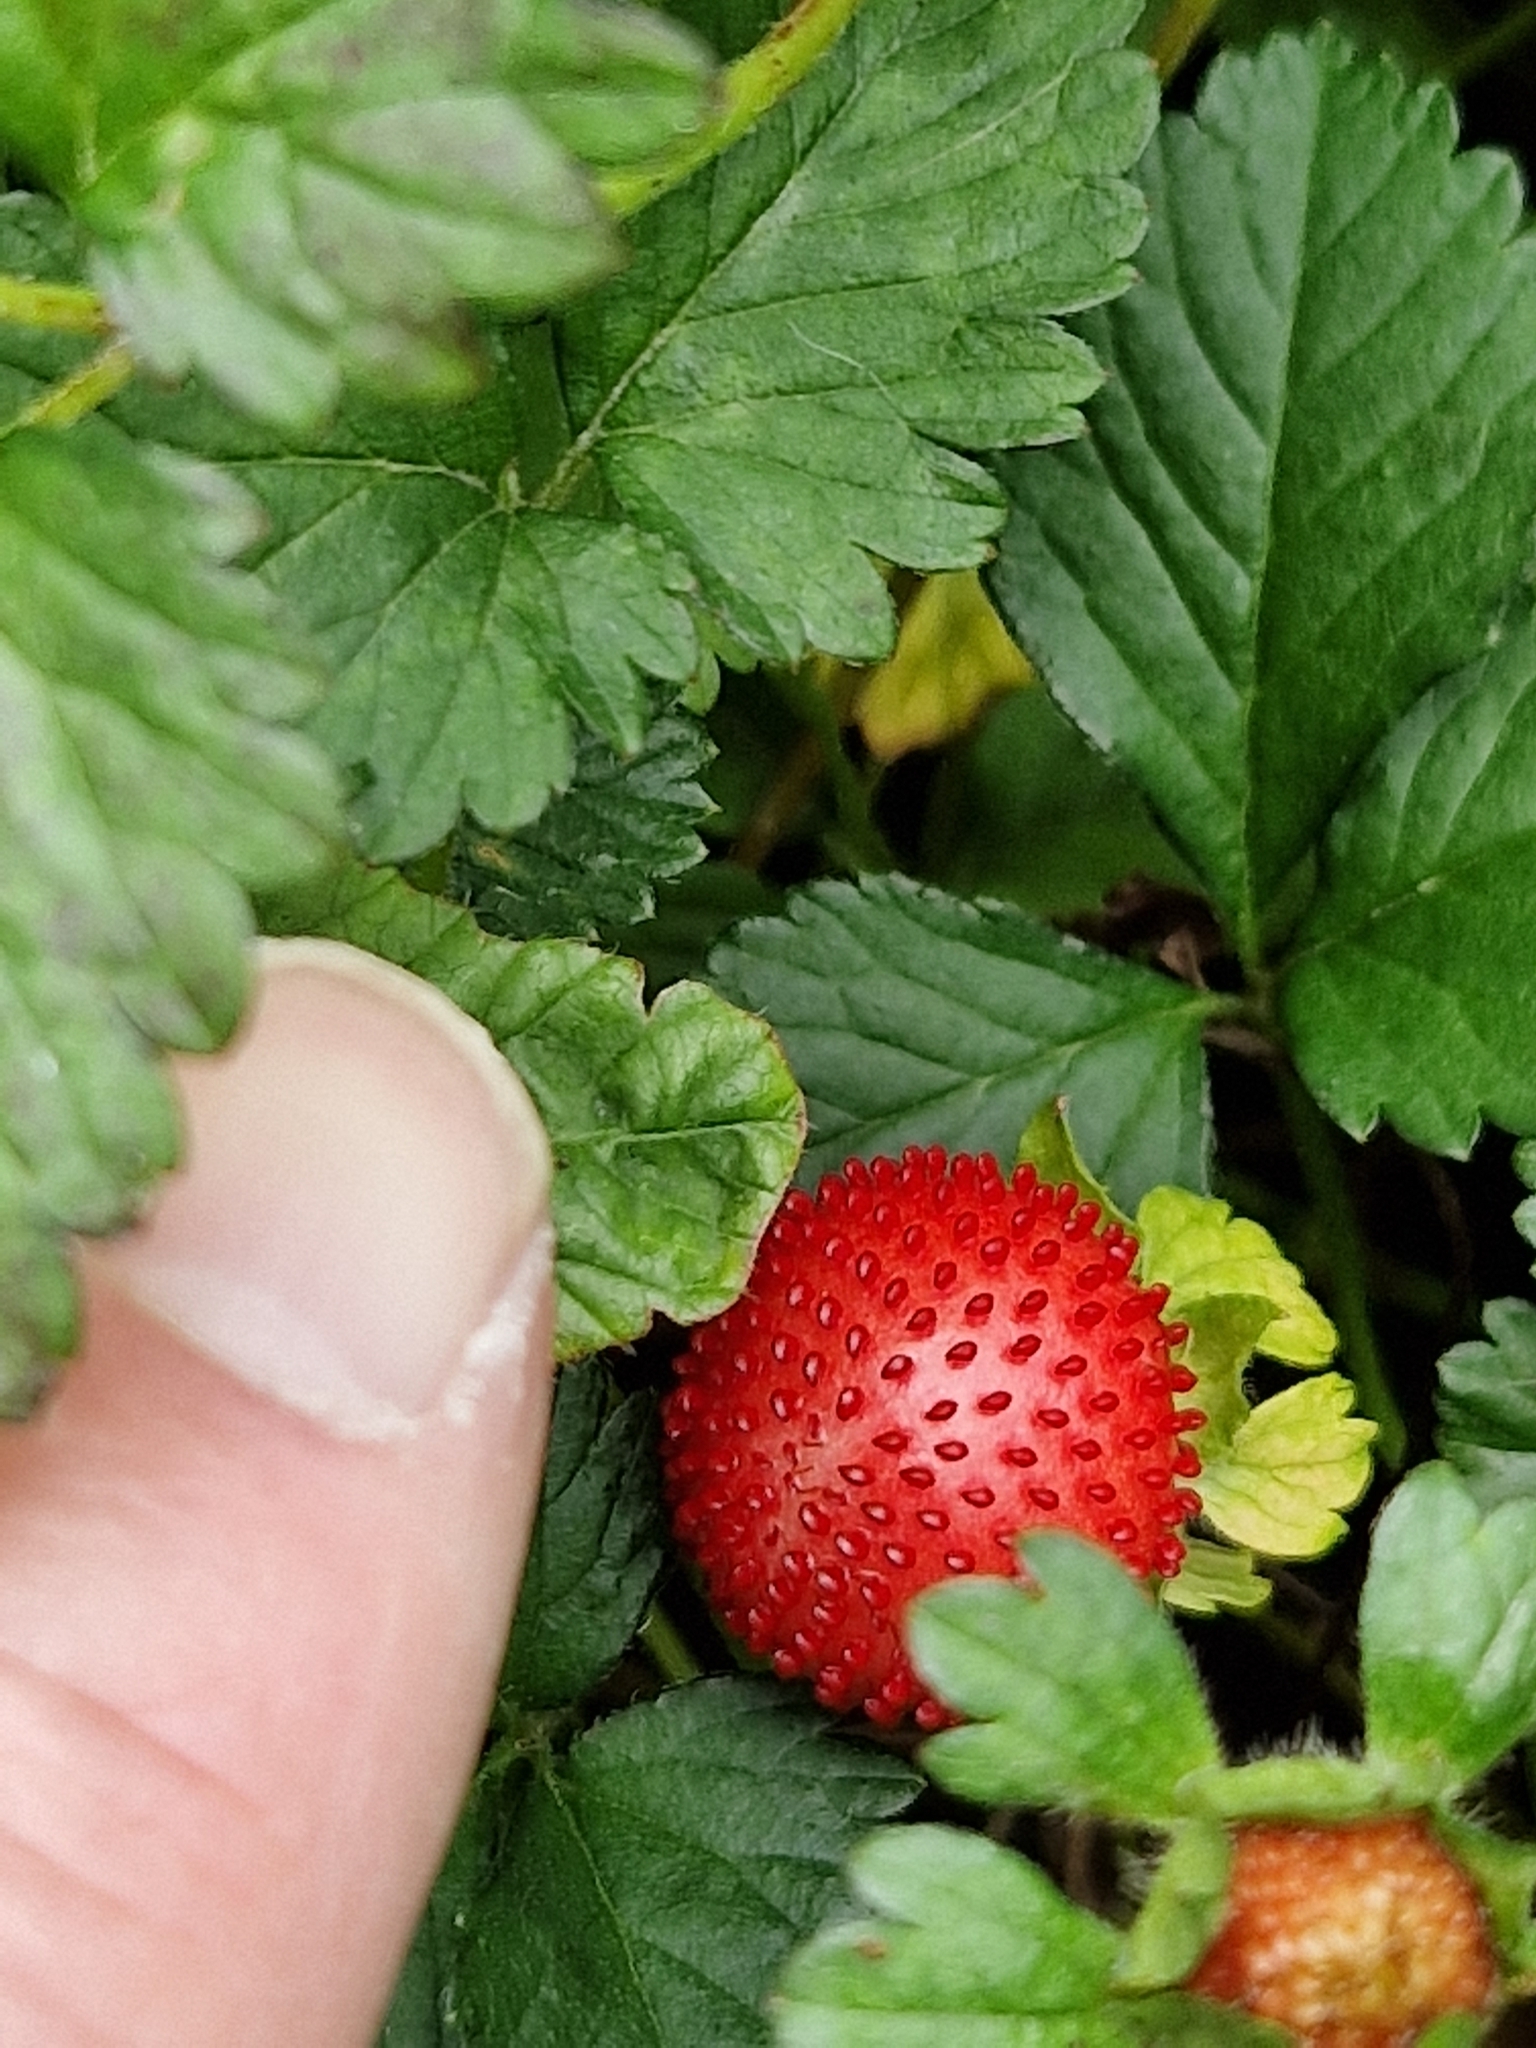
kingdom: Plantae
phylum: Tracheophyta
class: Magnoliopsida
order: Rosales
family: Rosaceae
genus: Potentilla
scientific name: Potentilla indica
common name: Yellow-flowered strawberry
